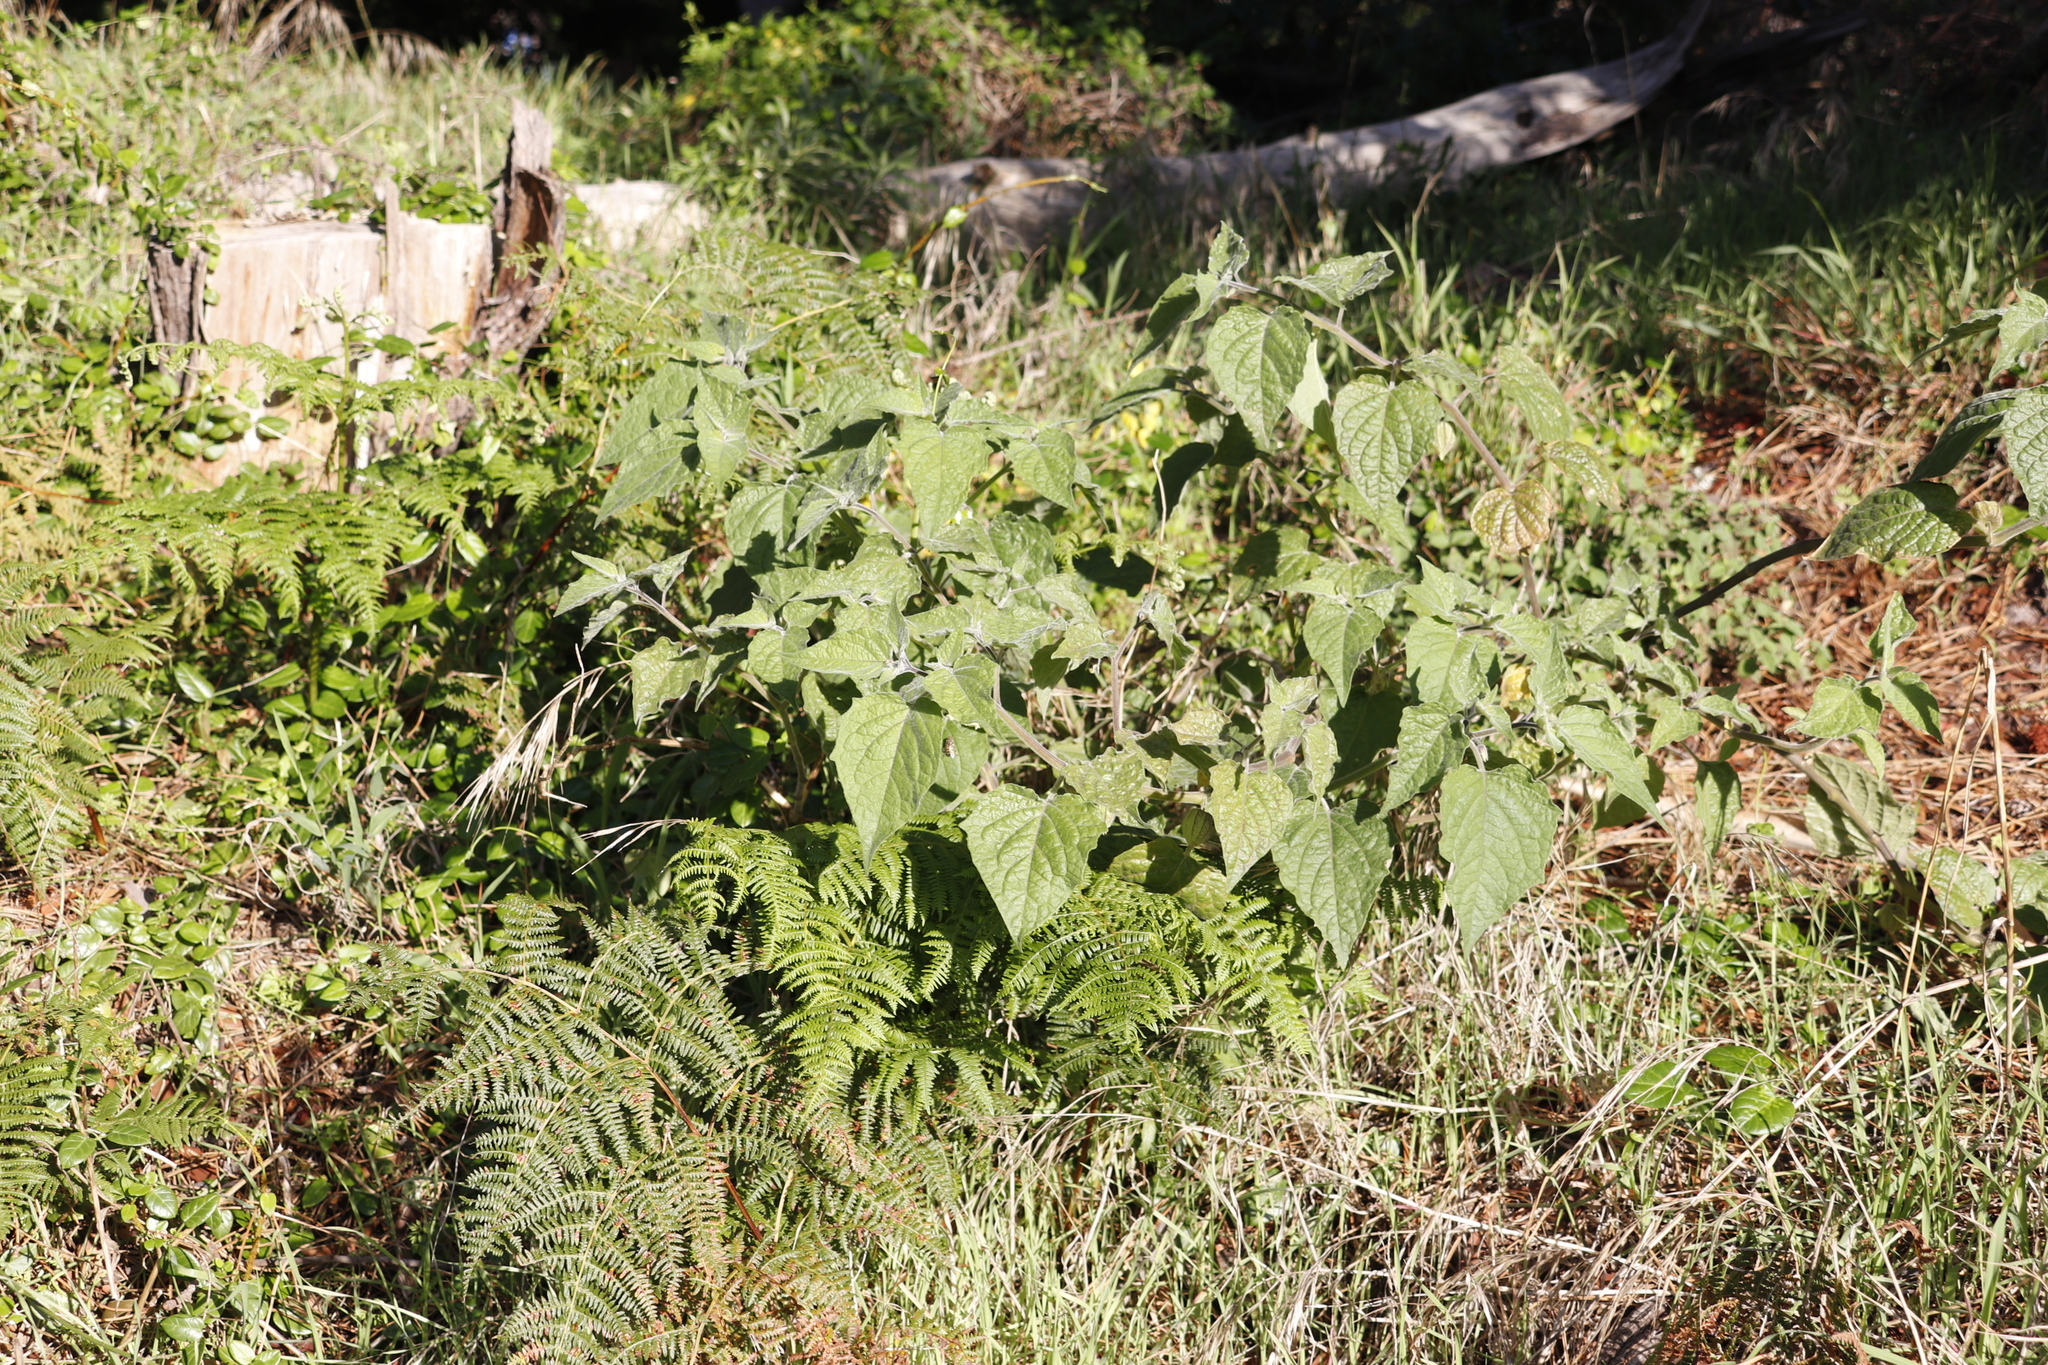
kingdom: Plantae
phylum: Tracheophyta
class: Magnoliopsida
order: Solanales
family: Solanaceae
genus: Physalis
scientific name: Physalis peruviana
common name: Cape-gooseberry
